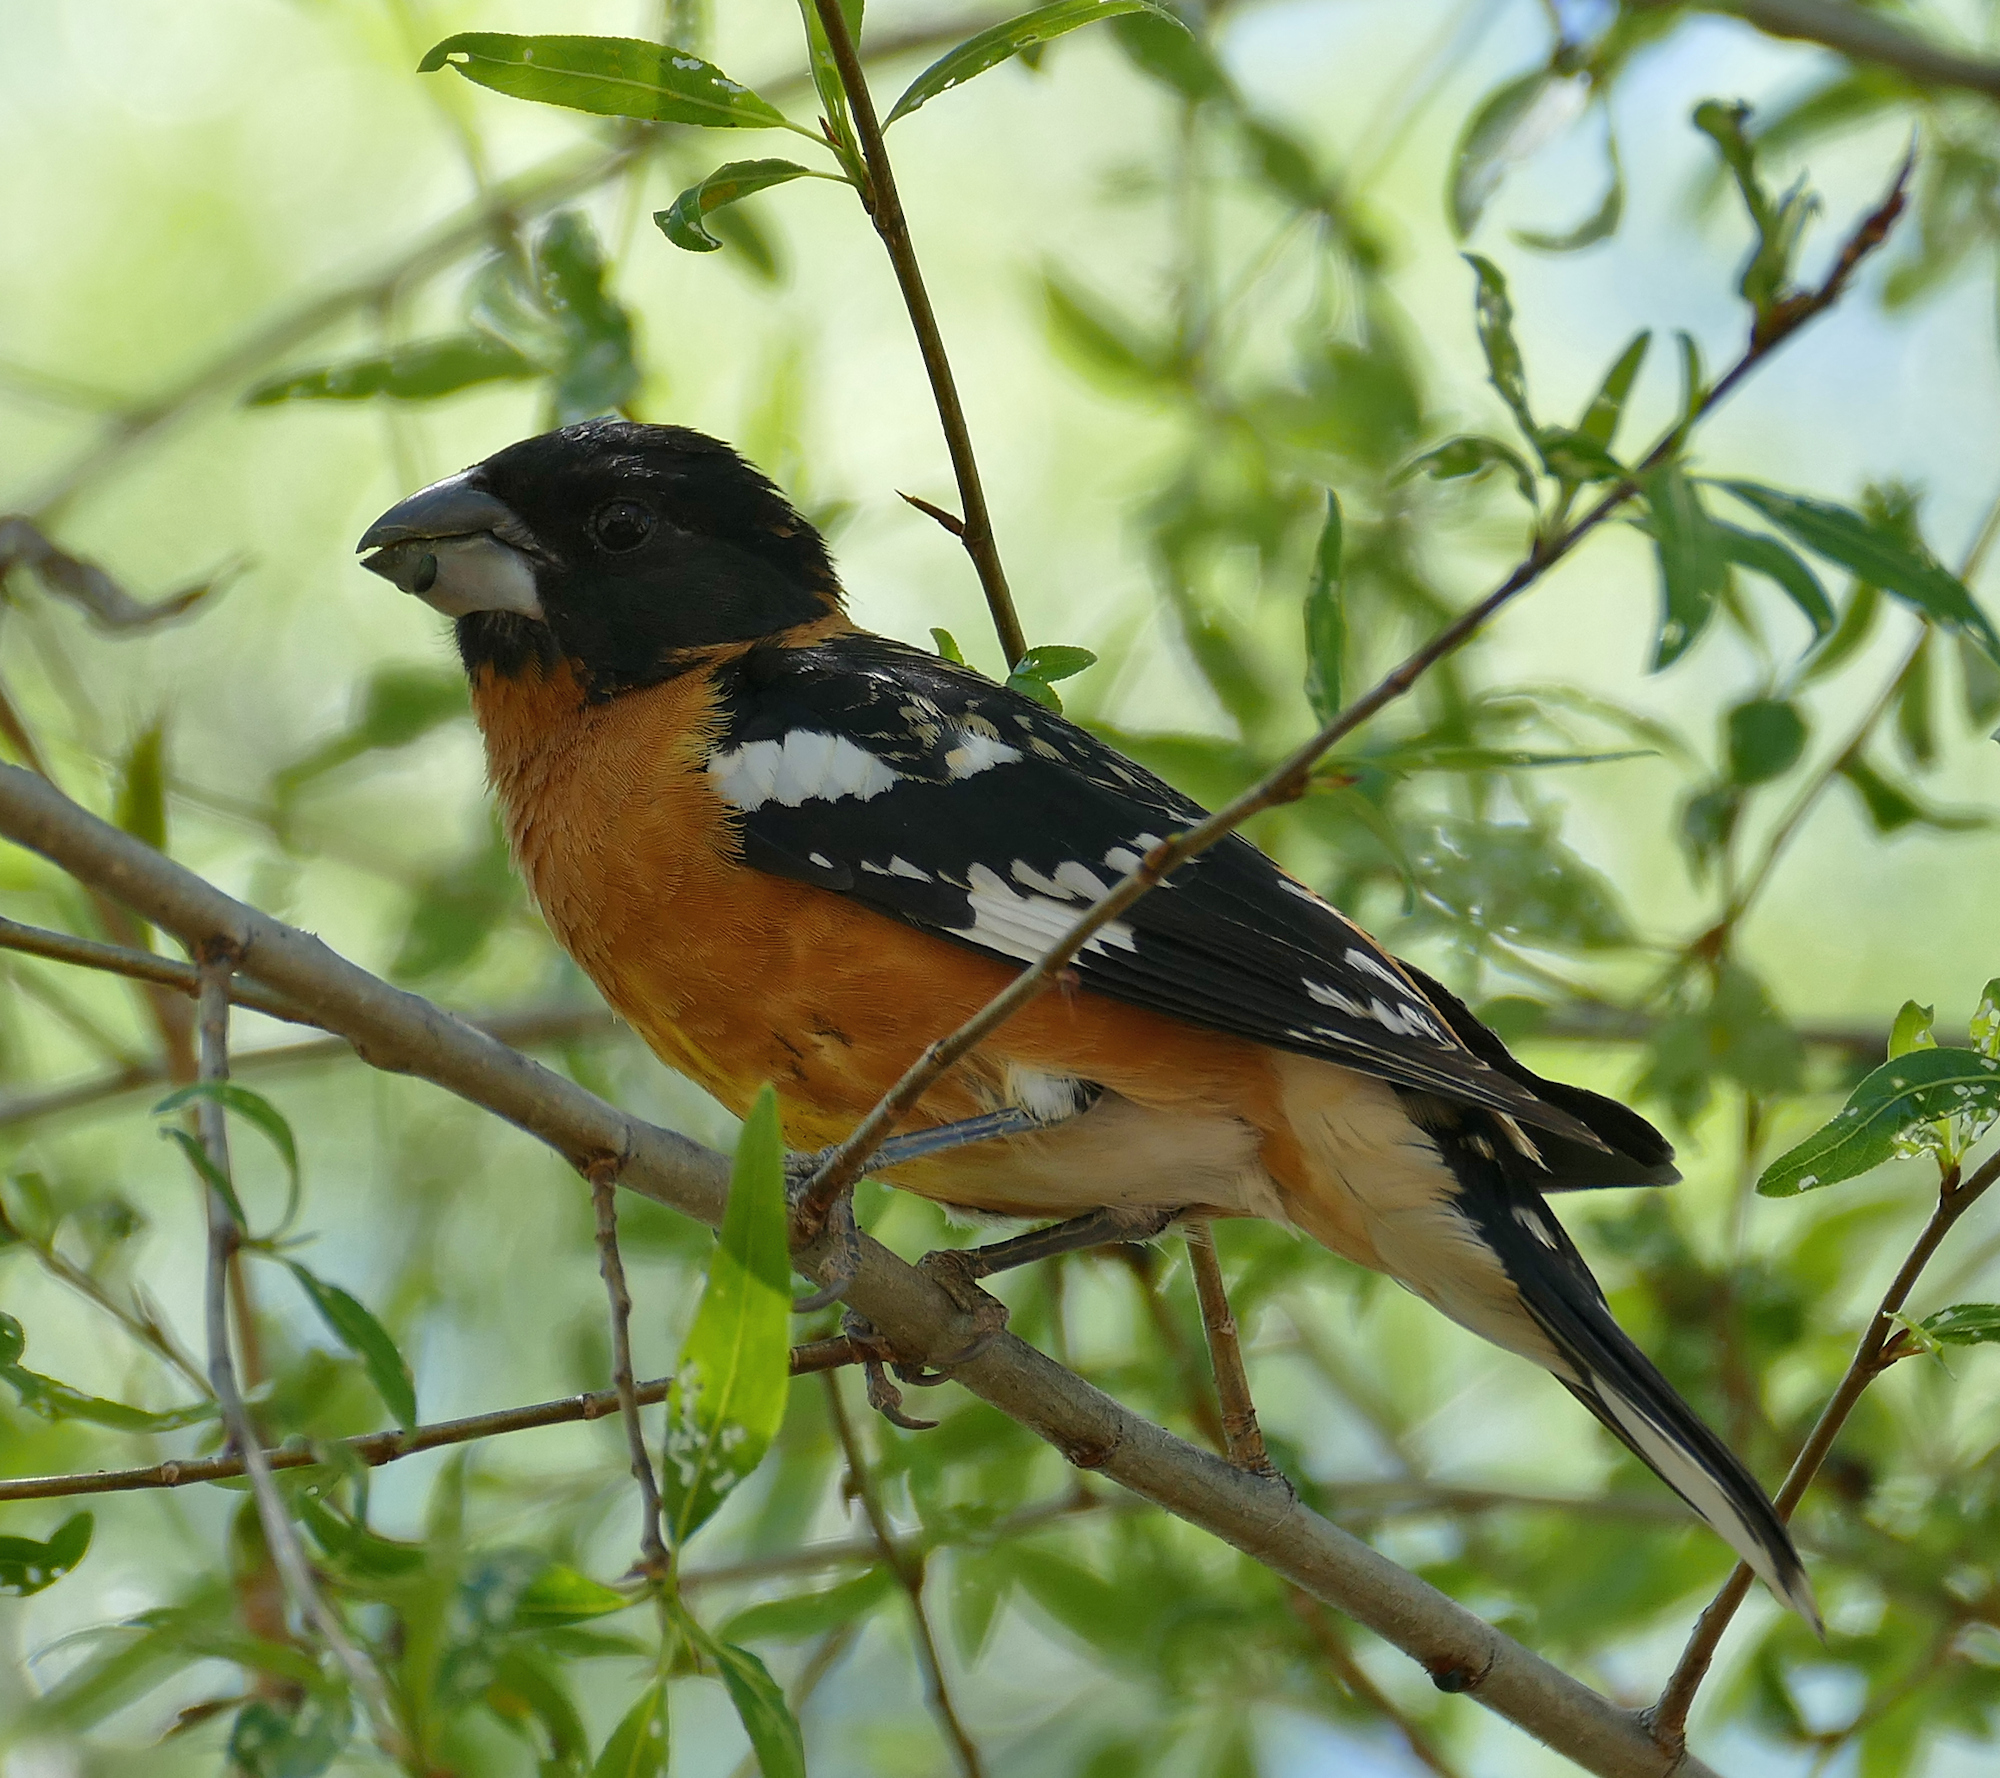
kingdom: Animalia
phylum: Chordata
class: Aves
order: Passeriformes
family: Cardinalidae
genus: Pheucticus
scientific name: Pheucticus melanocephalus
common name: Black-headed grosbeak
